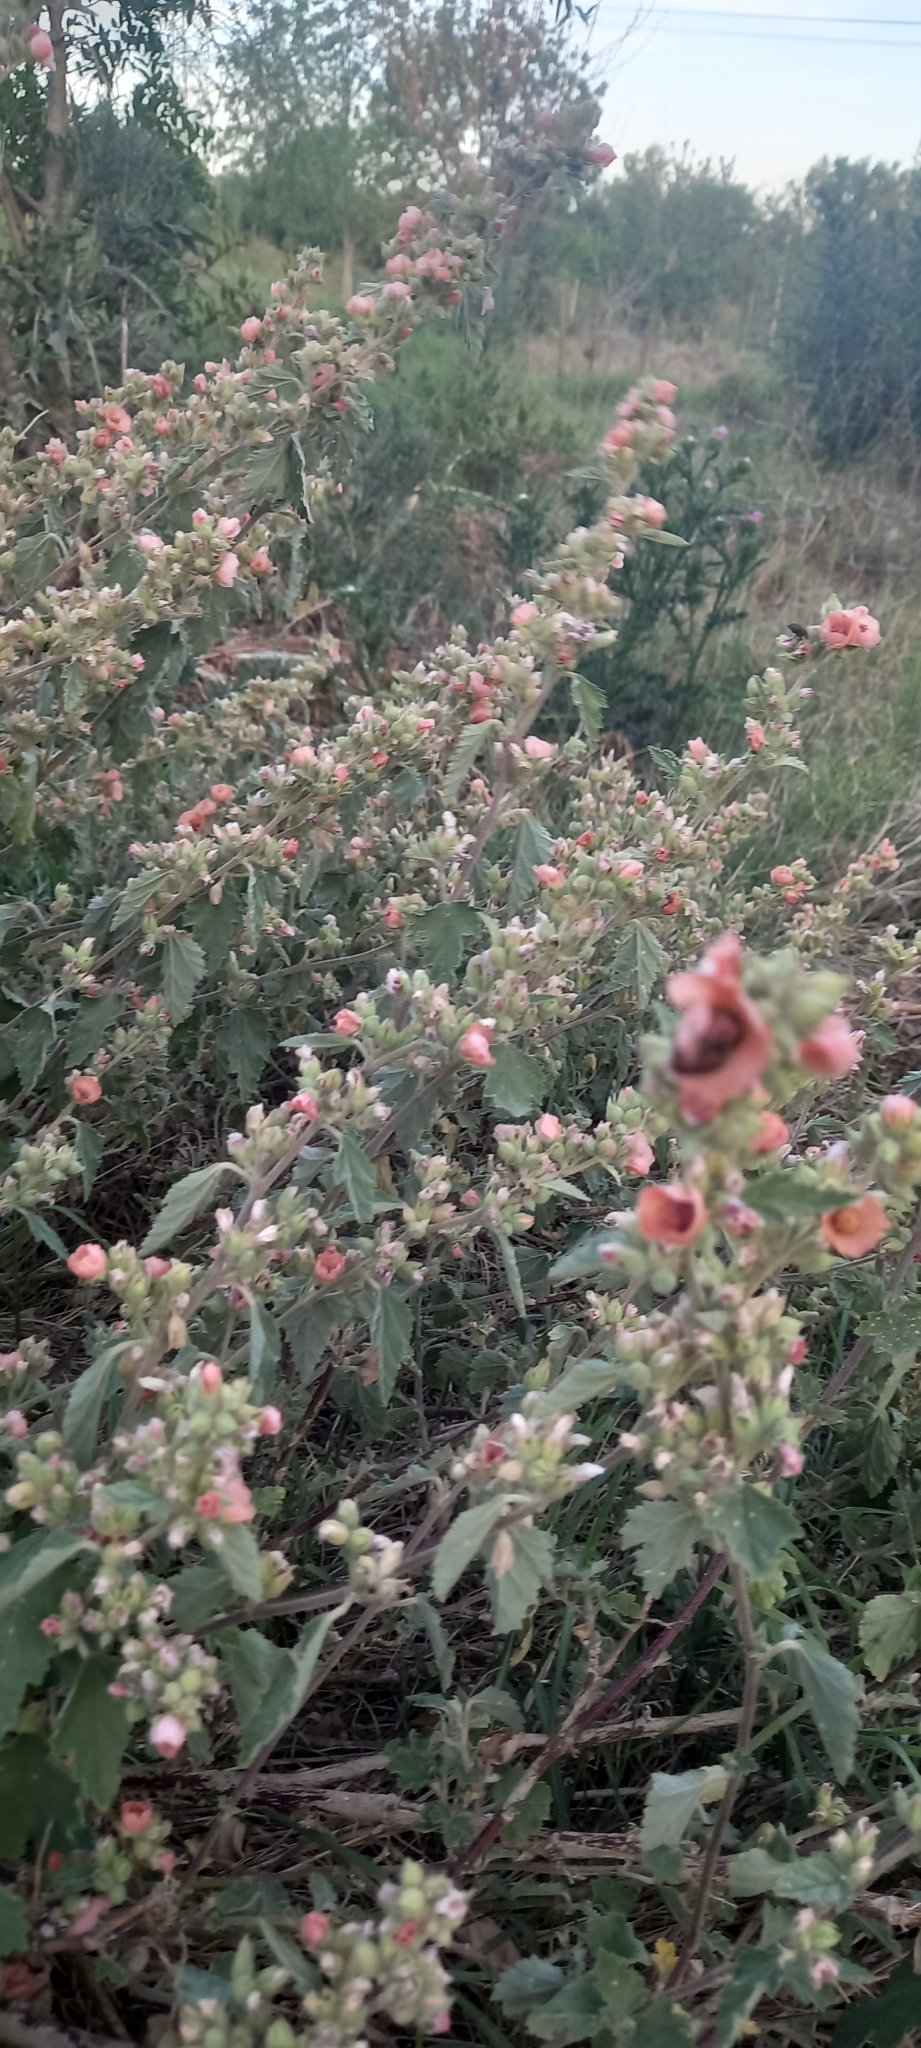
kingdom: Plantae
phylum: Tracheophyta
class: Magnoliopsida
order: Malvales
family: Malvaceae
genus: Sphaeralcea
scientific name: Sphaeralcea bonariensis
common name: Latin globemallow
